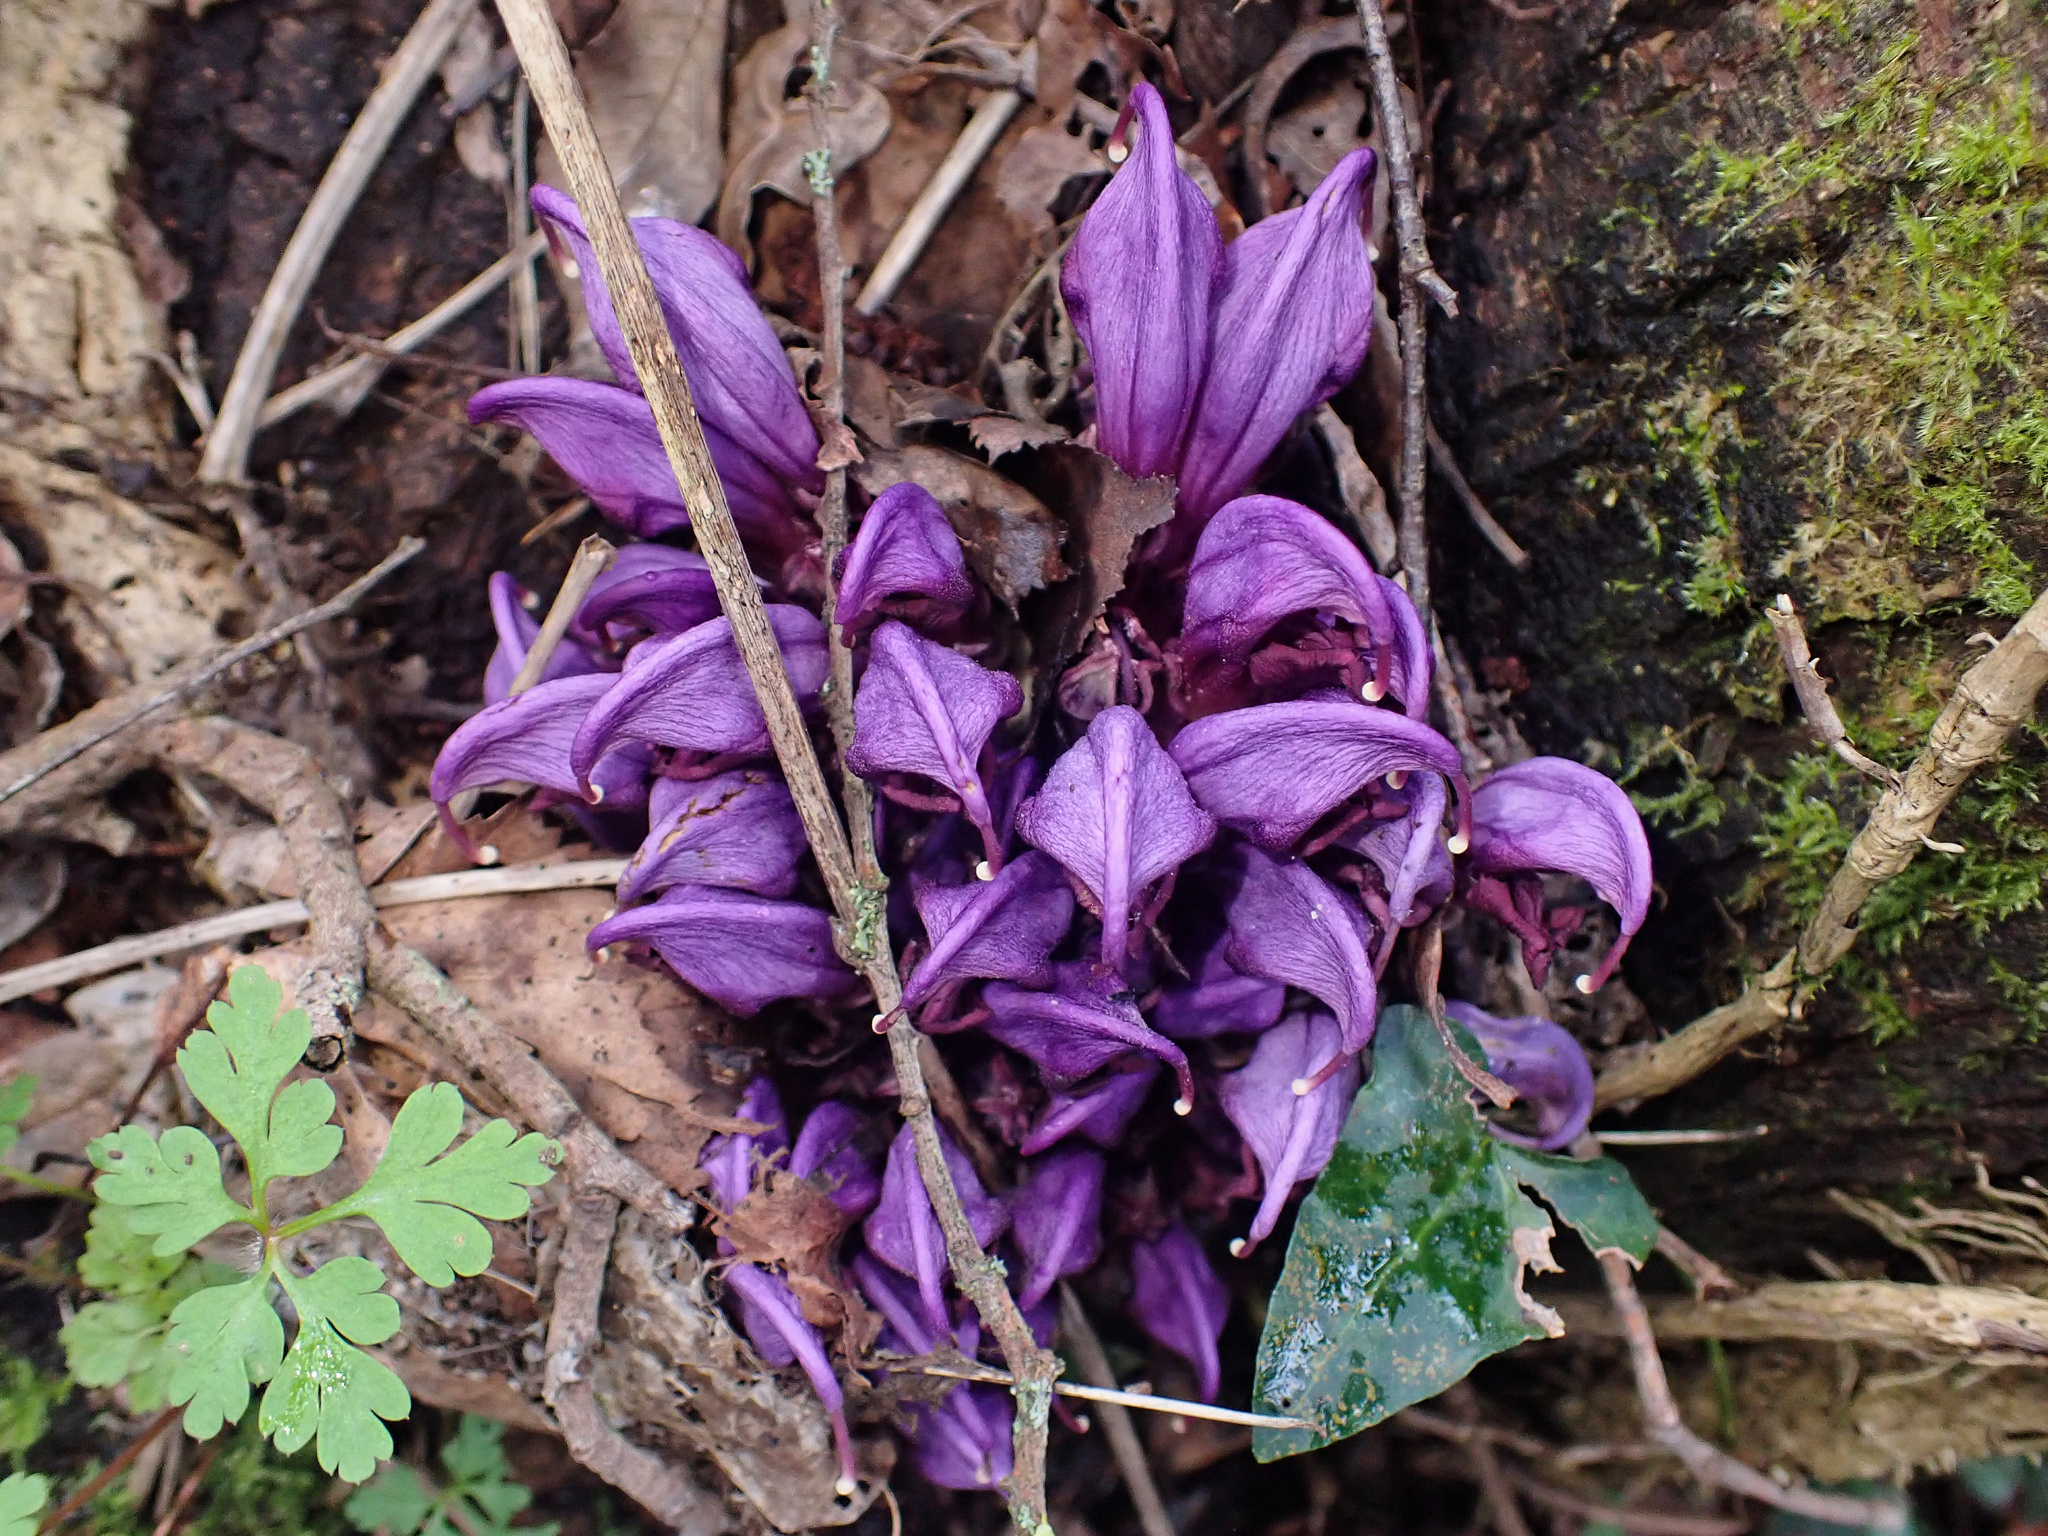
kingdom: Plantae
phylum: Tracheophyta
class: Magnoliopsida
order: Lamiales
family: Orobanchaceae
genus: Lathraea
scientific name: Lathraea clandestina
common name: Purple toothwort
